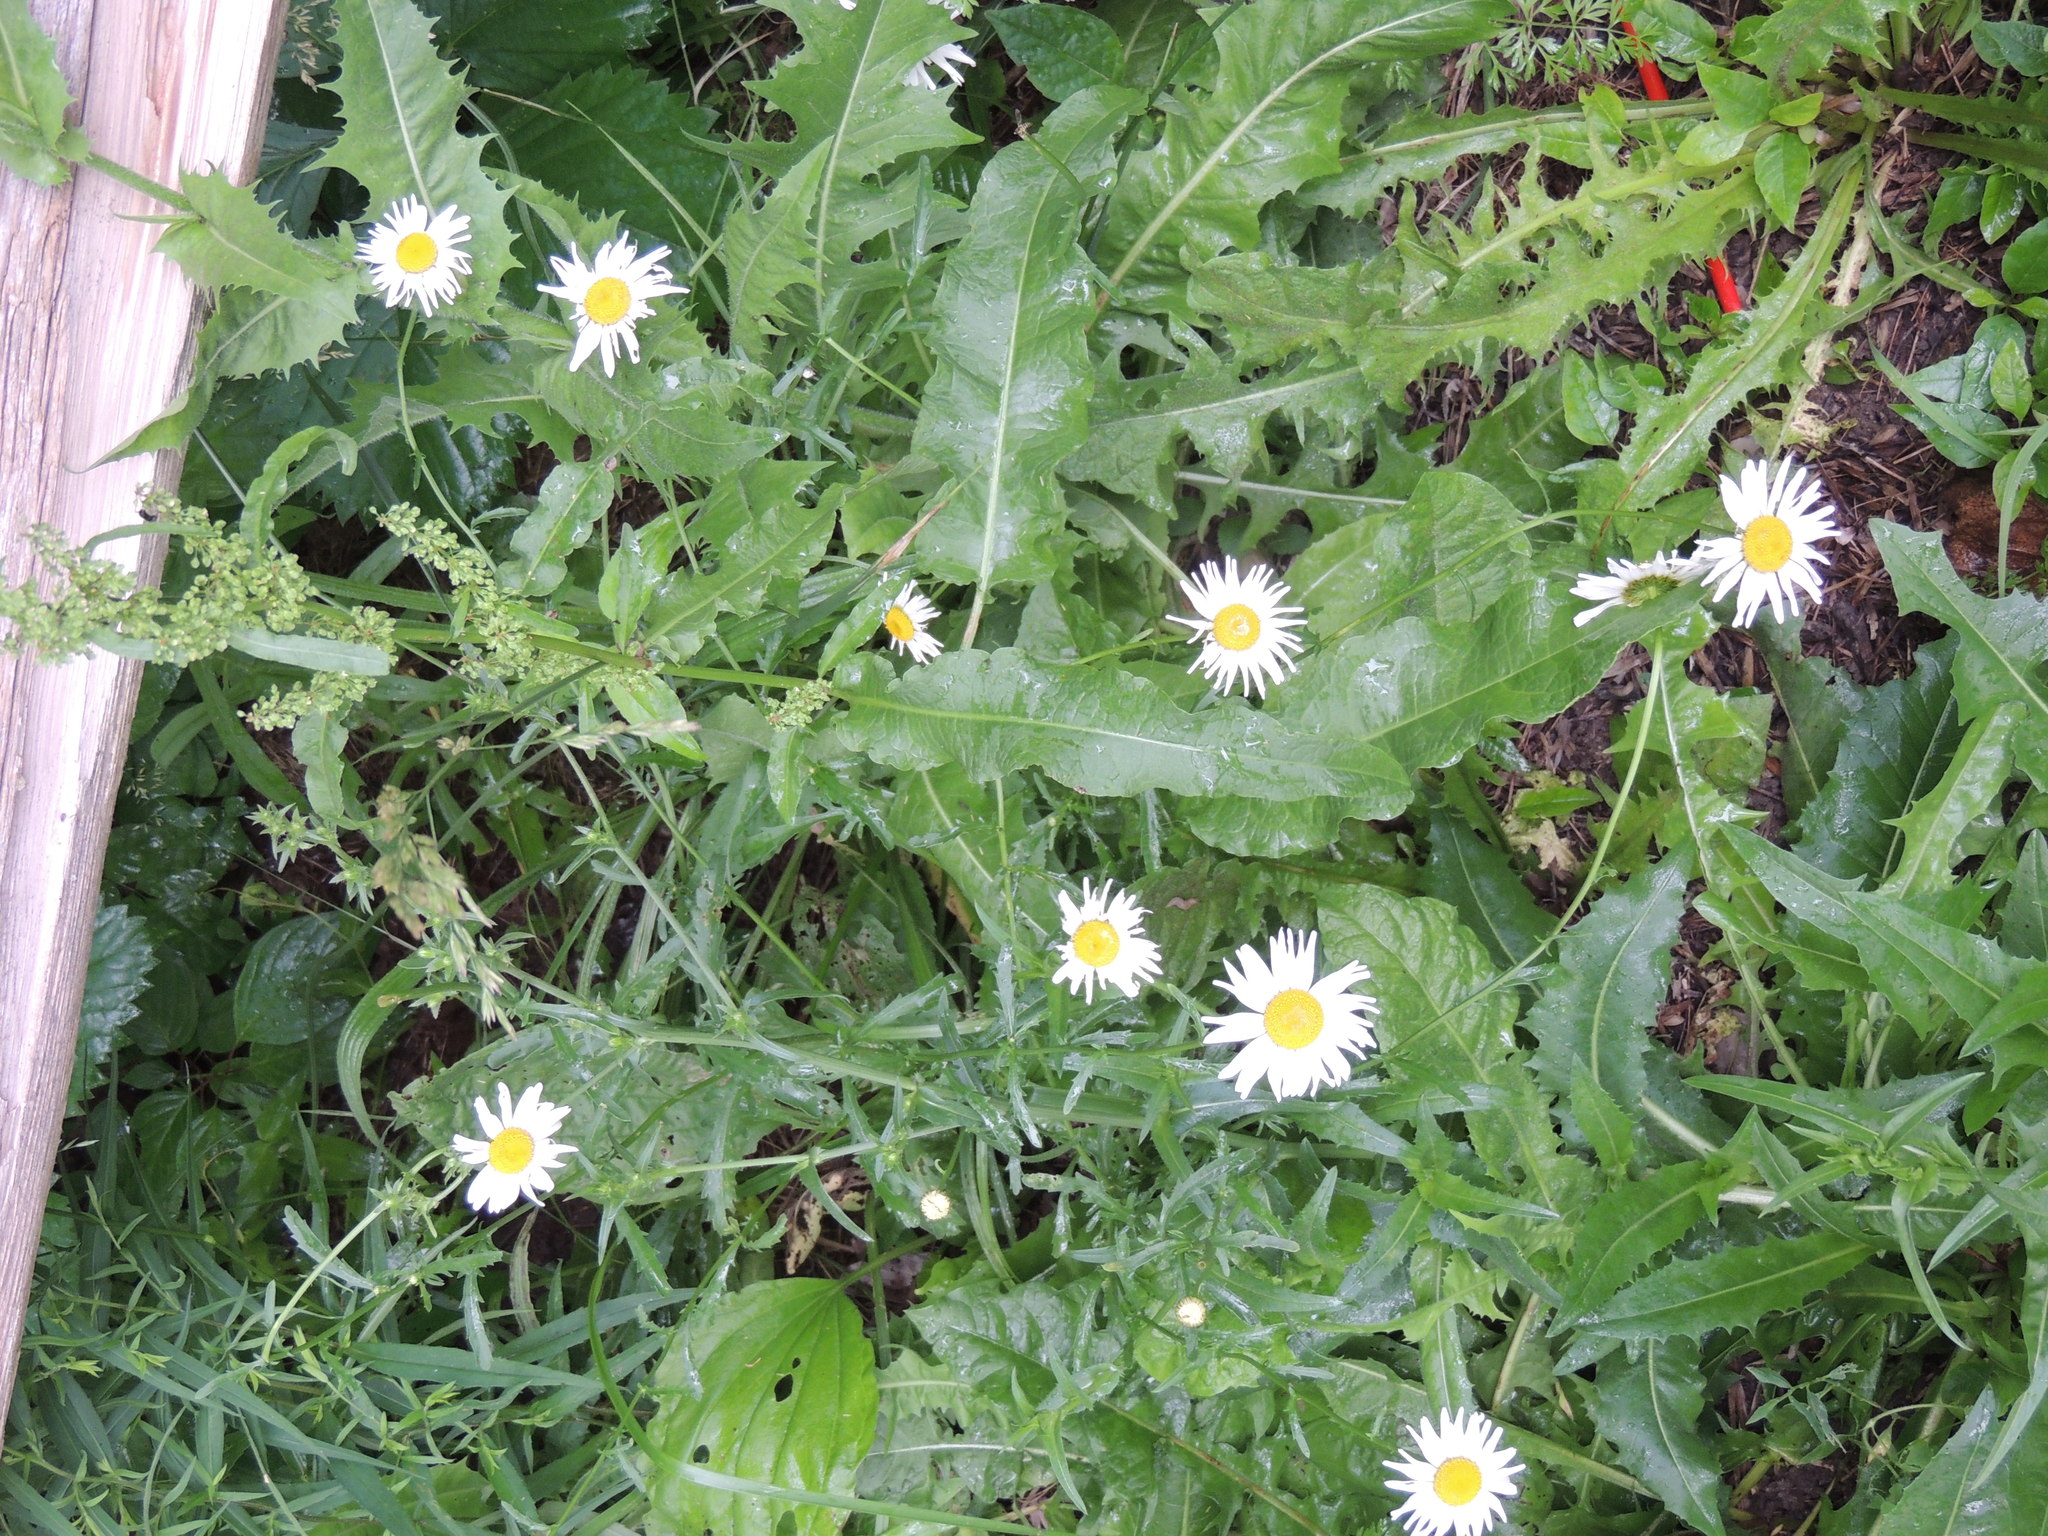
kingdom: Plantae
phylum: Tracheophyta
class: Magnoliopsida
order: Asterales
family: Asteraceae
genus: Leucanthemum
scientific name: Leucanthemum vulgare
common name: Oxeye daisy
